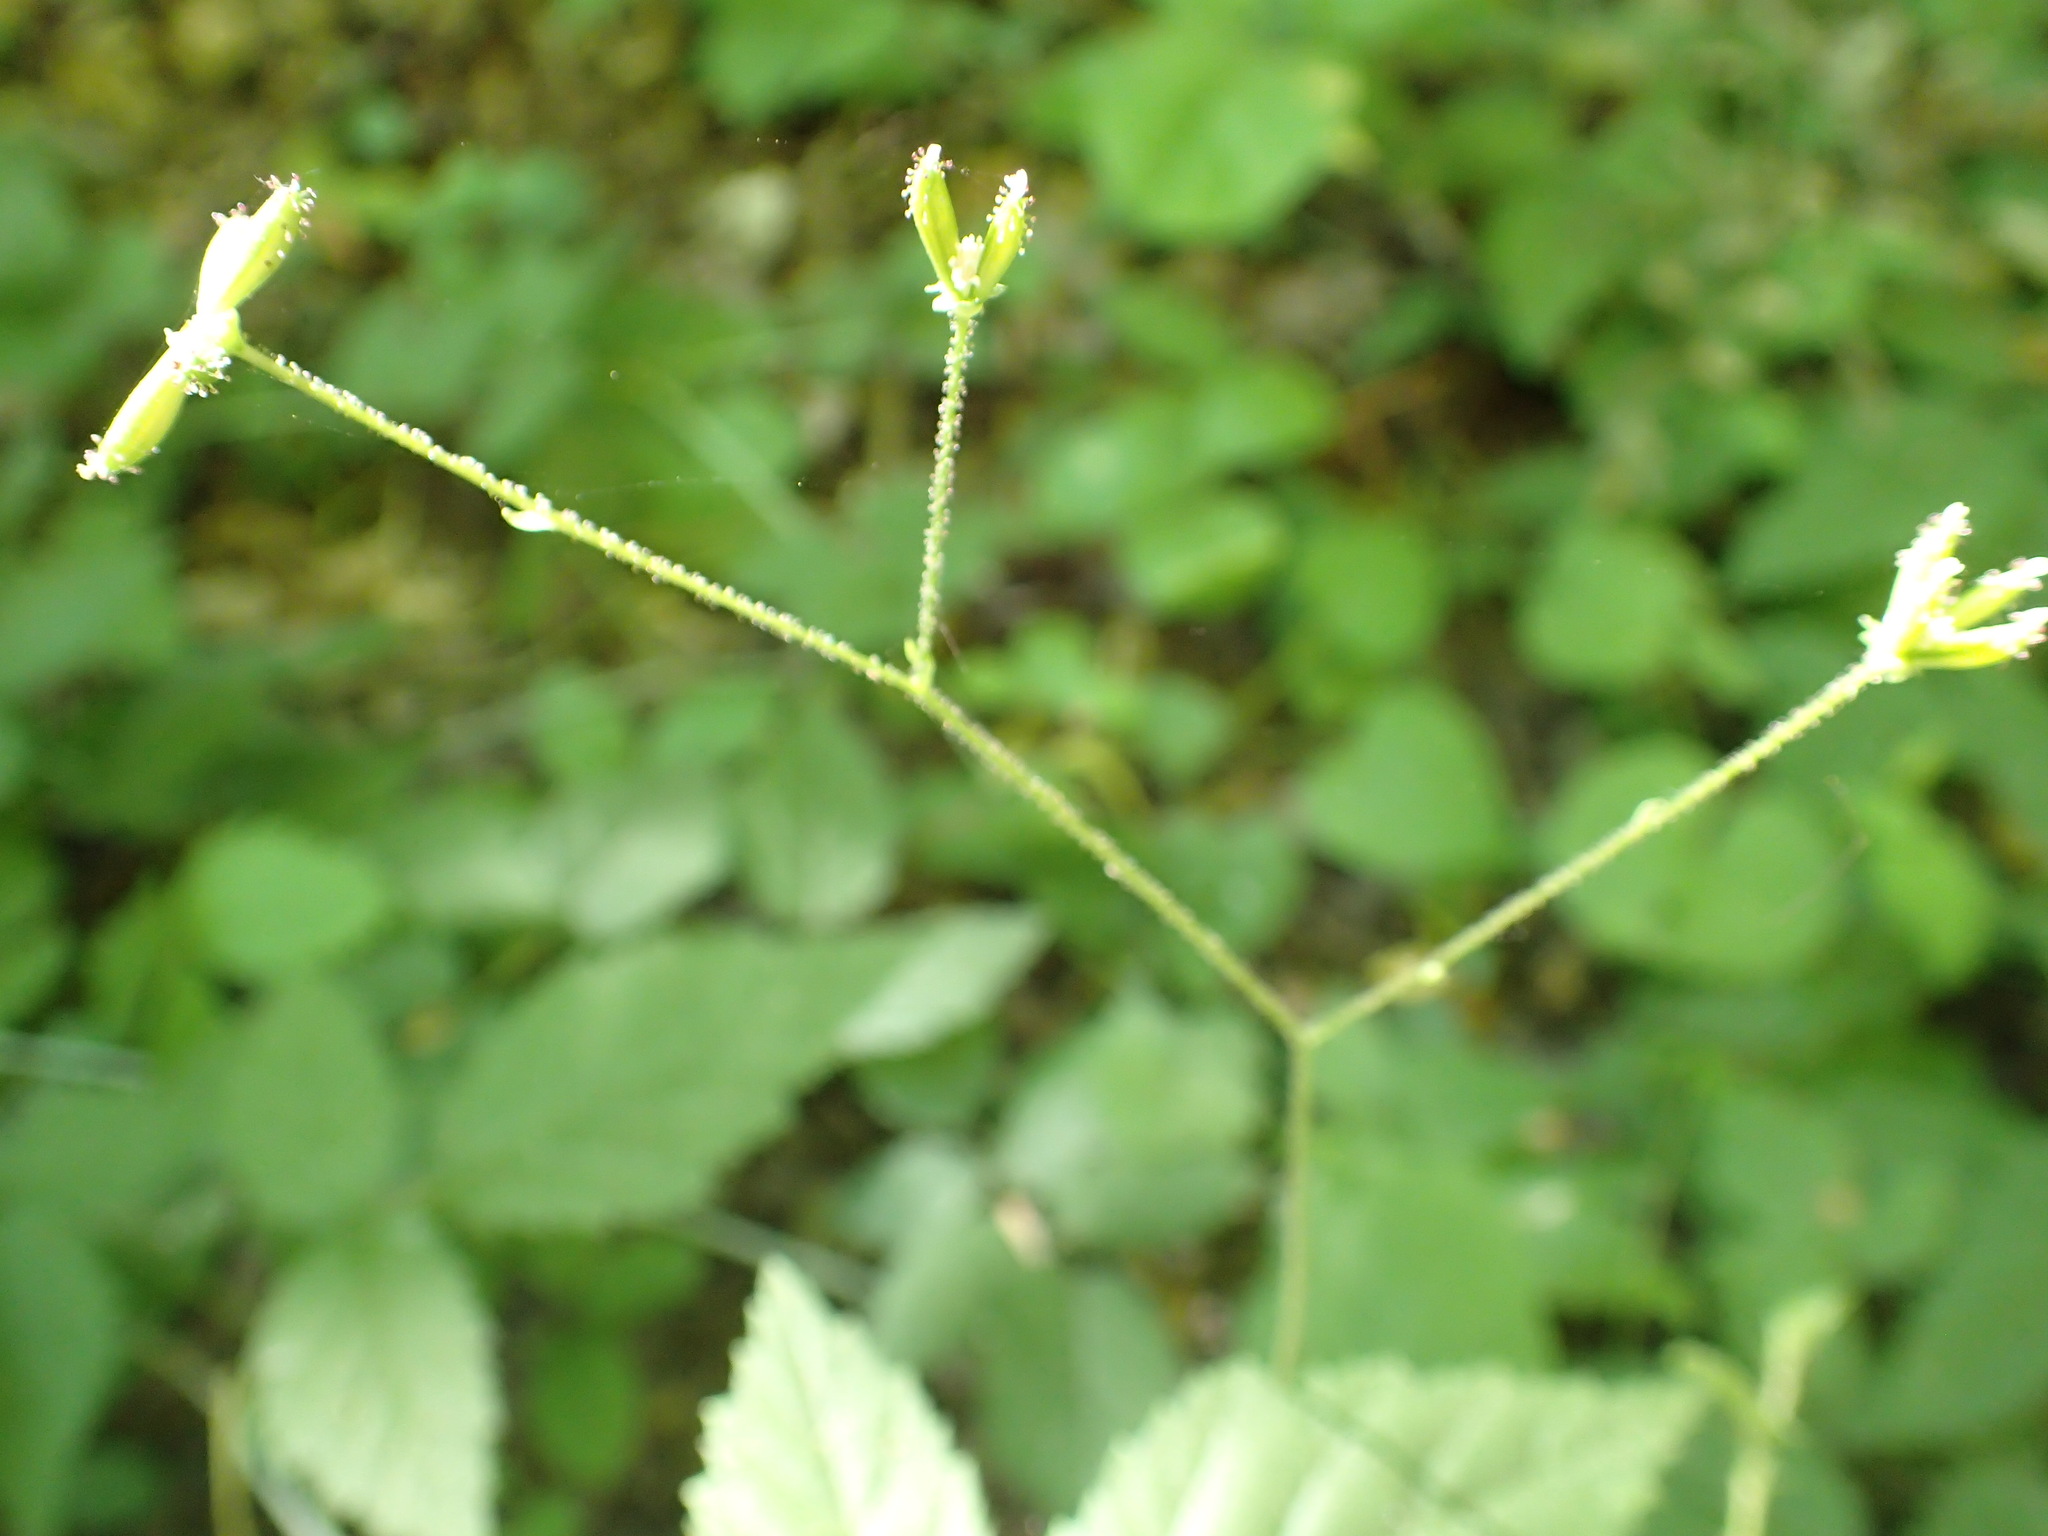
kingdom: Plantae
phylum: Tracheophyta
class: Magnoliopsida
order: Asterales
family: Asteraceae
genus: Adenocaulon
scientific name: Adenocaulon bicolor
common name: Trailplant
